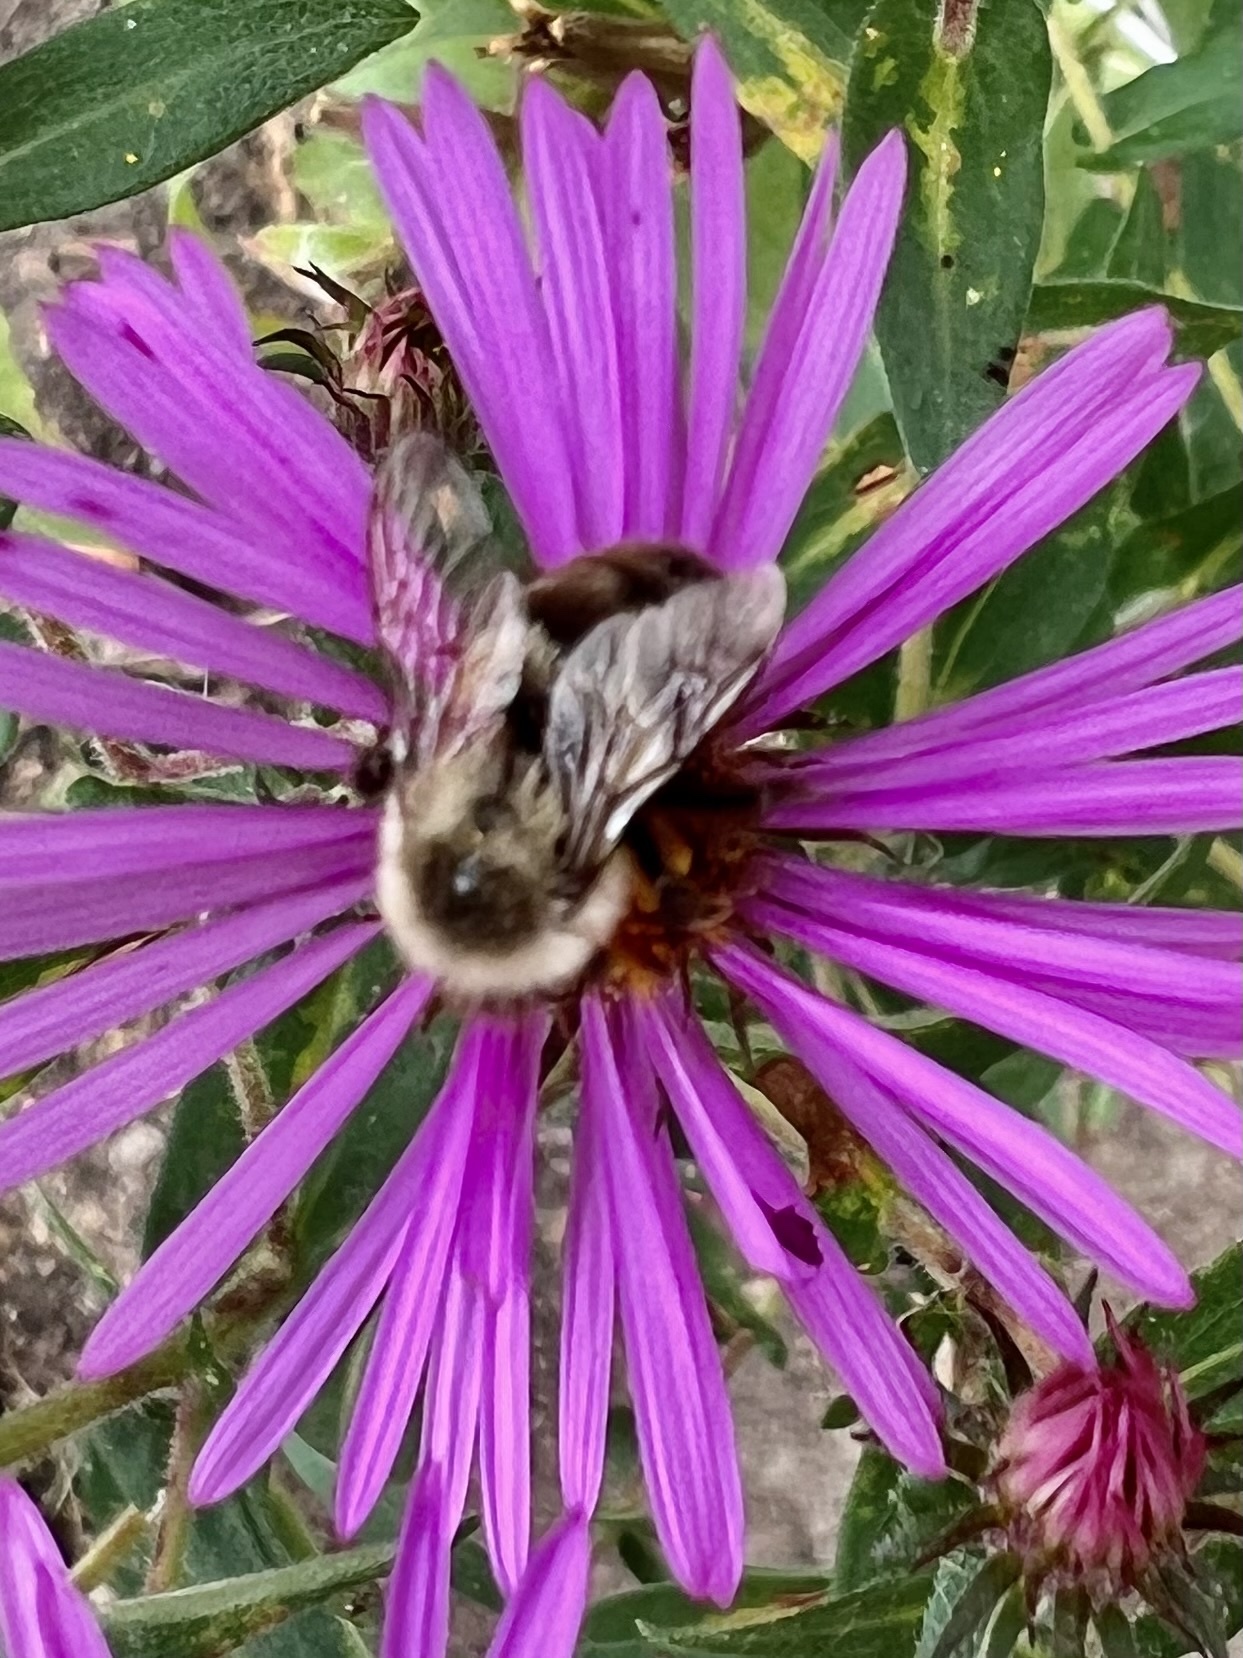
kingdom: Animalia
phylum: Arthropoda
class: Insecta
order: Hymenoptera
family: Apidae
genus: Bombus
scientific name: Bombus impatiens
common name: Common eastern bumble bee
